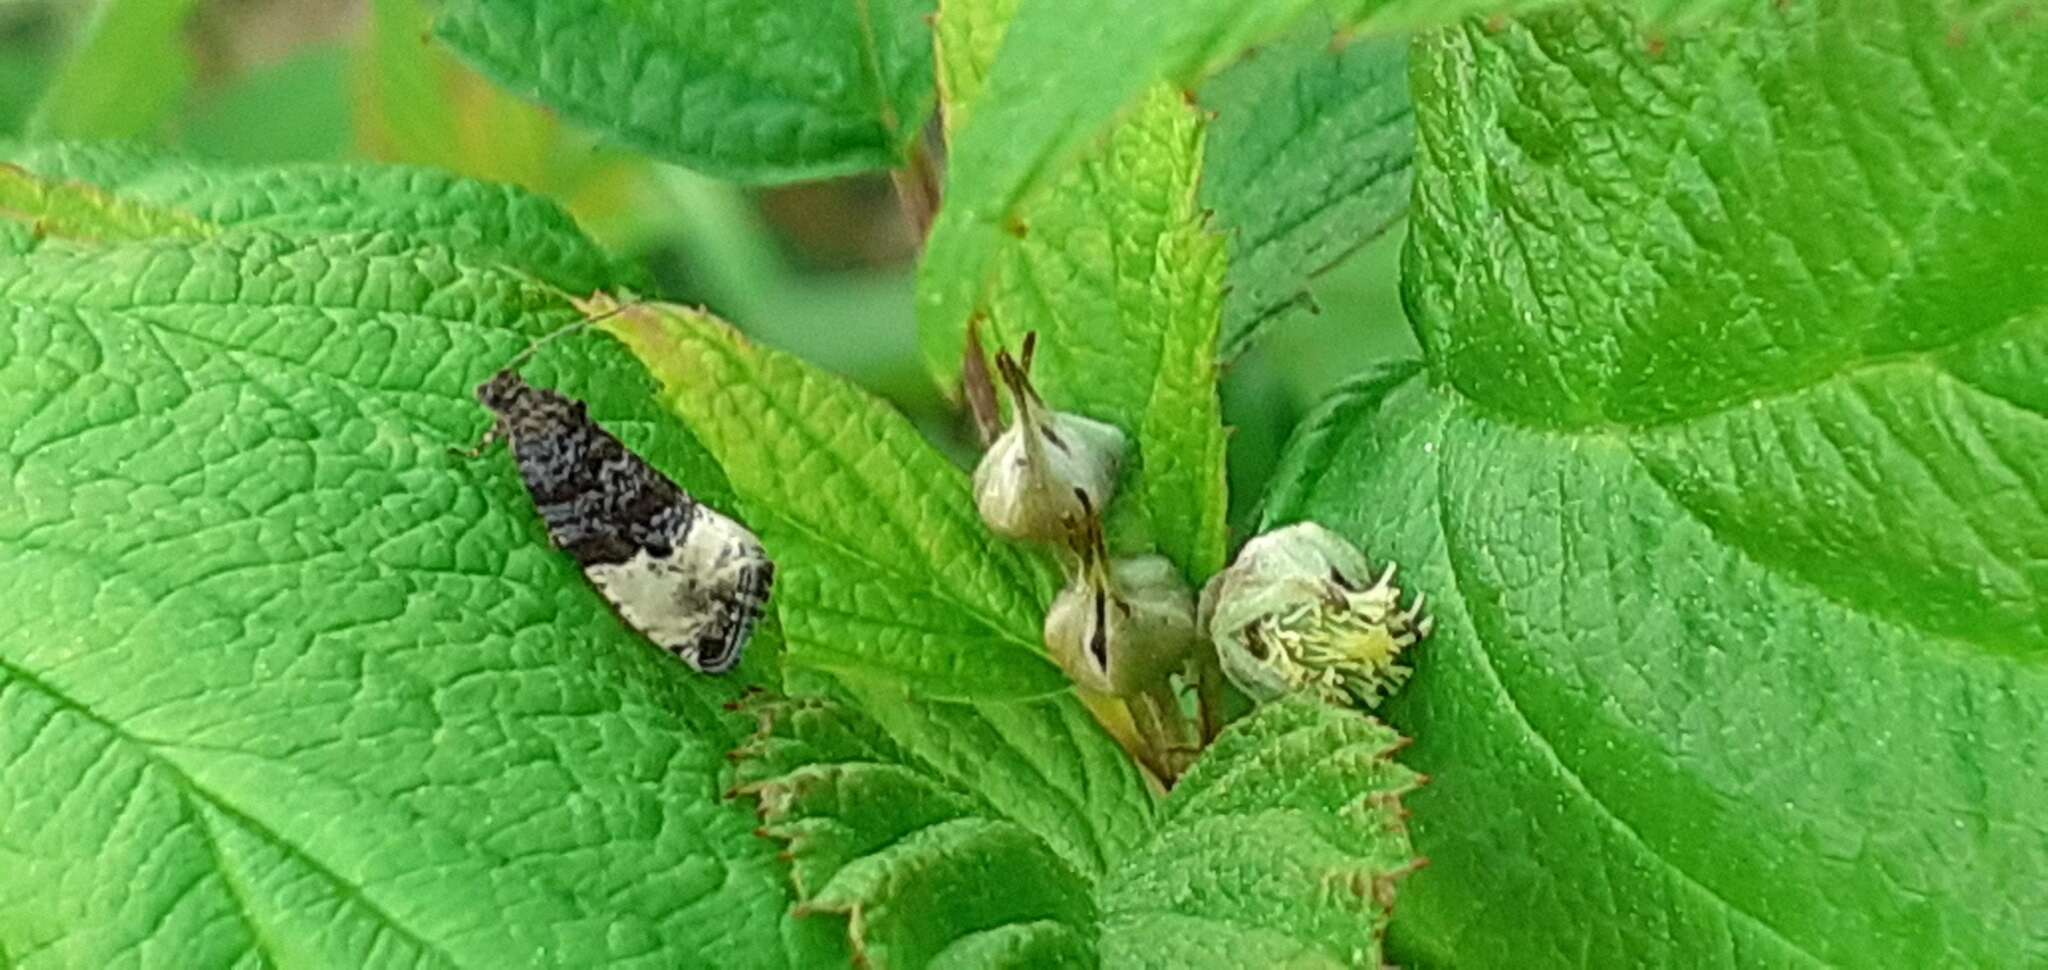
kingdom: Animalia
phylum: Arthropoda
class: Insecta
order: Lepidoptera
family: Tortricidae
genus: Hedya
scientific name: Hedya pruniana
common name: Plum tortrix
